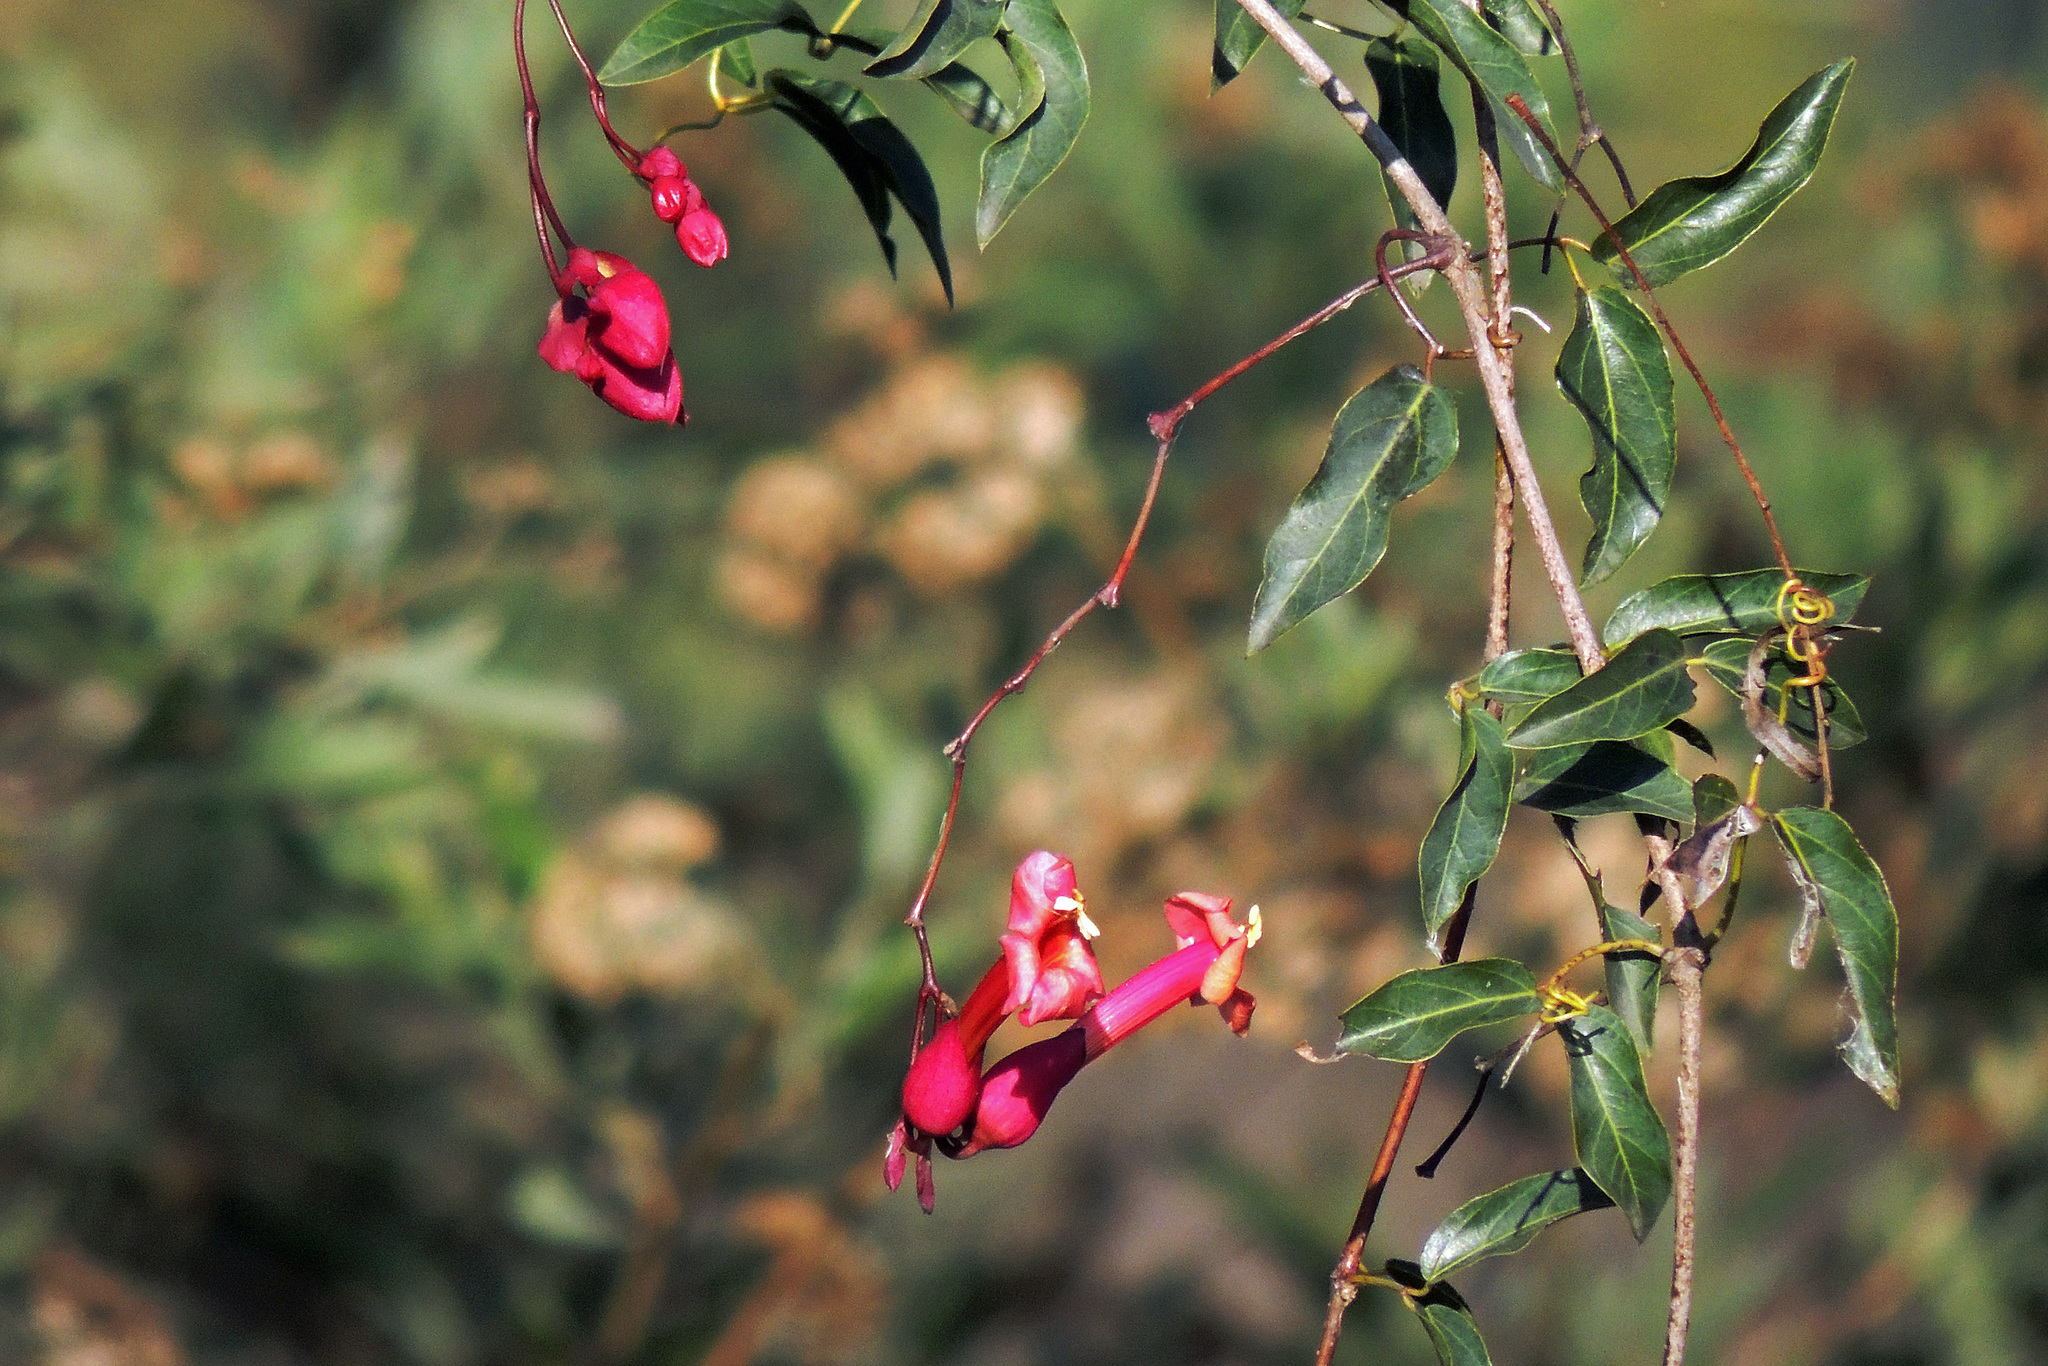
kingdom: Plantae
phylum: Tracheophyta
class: Magnoliopsida
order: Lamiales
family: Bignoniaceae
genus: Dolichandra
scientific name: Dolichandra cynanchoides
